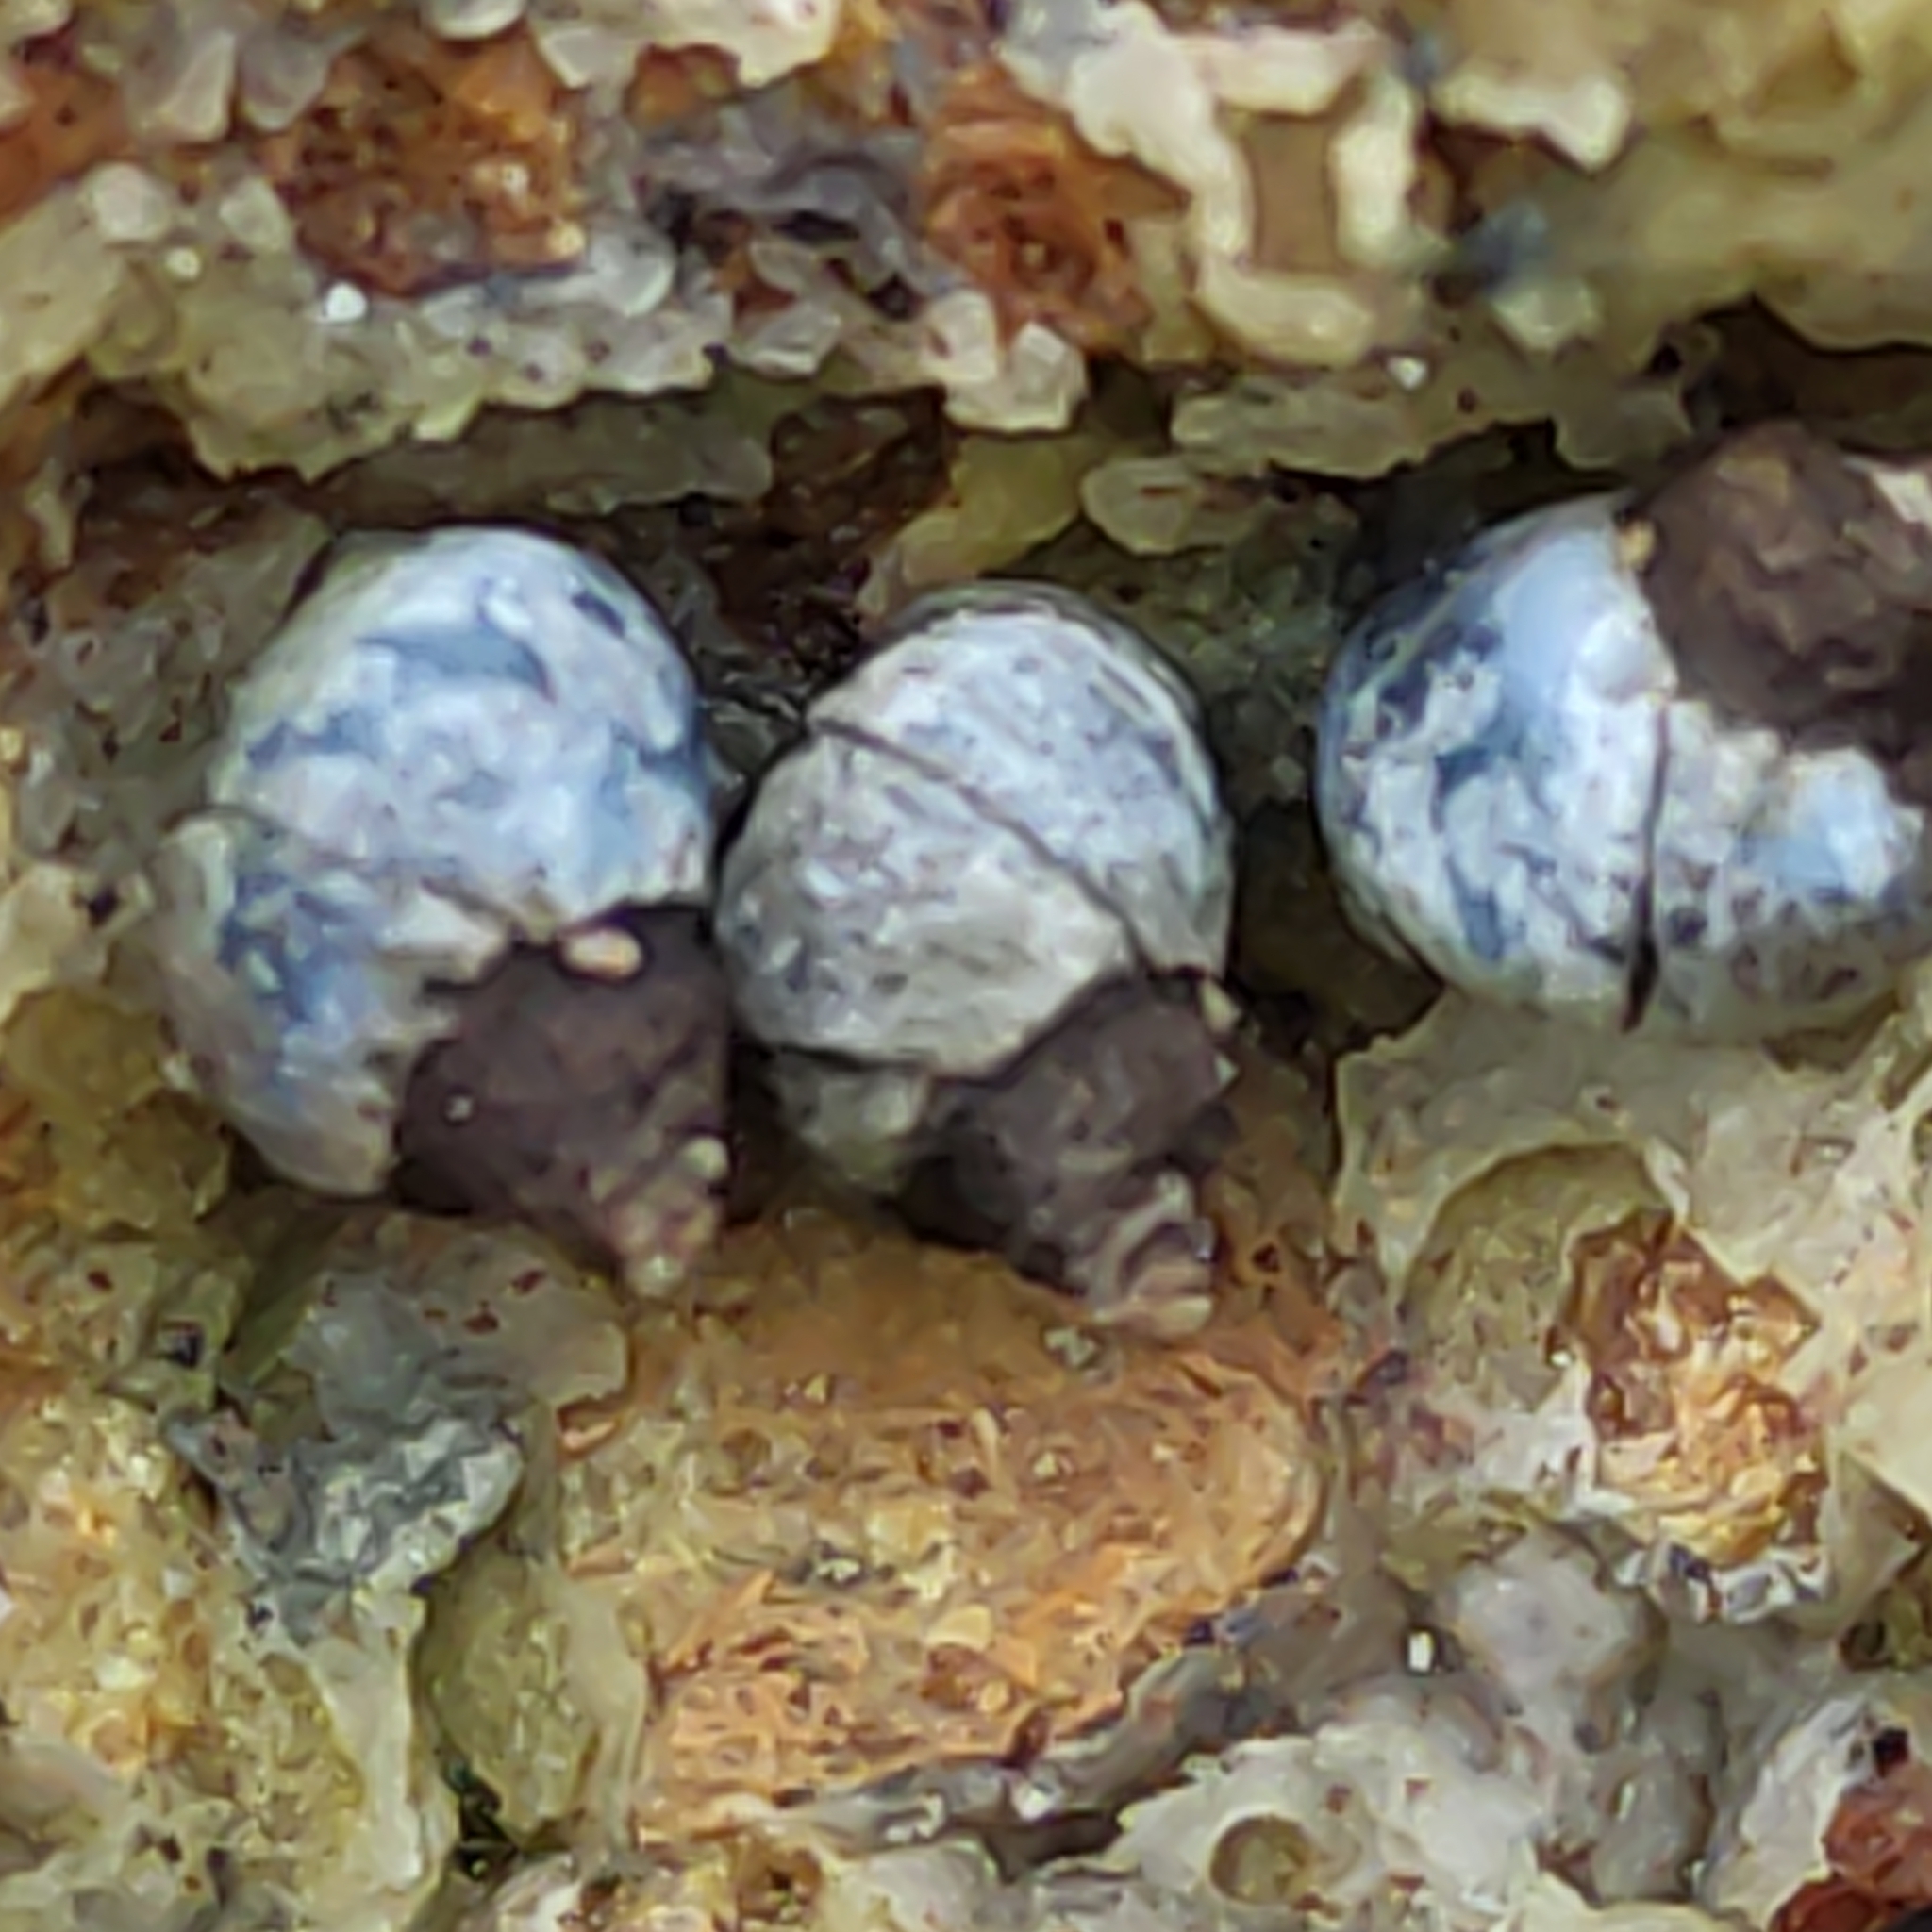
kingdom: Animalia
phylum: Mollusca
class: Gastropoda
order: Littorinimorpha
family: Littorinidae
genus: Austrolittorina
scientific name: Austrolittorina antipodum
